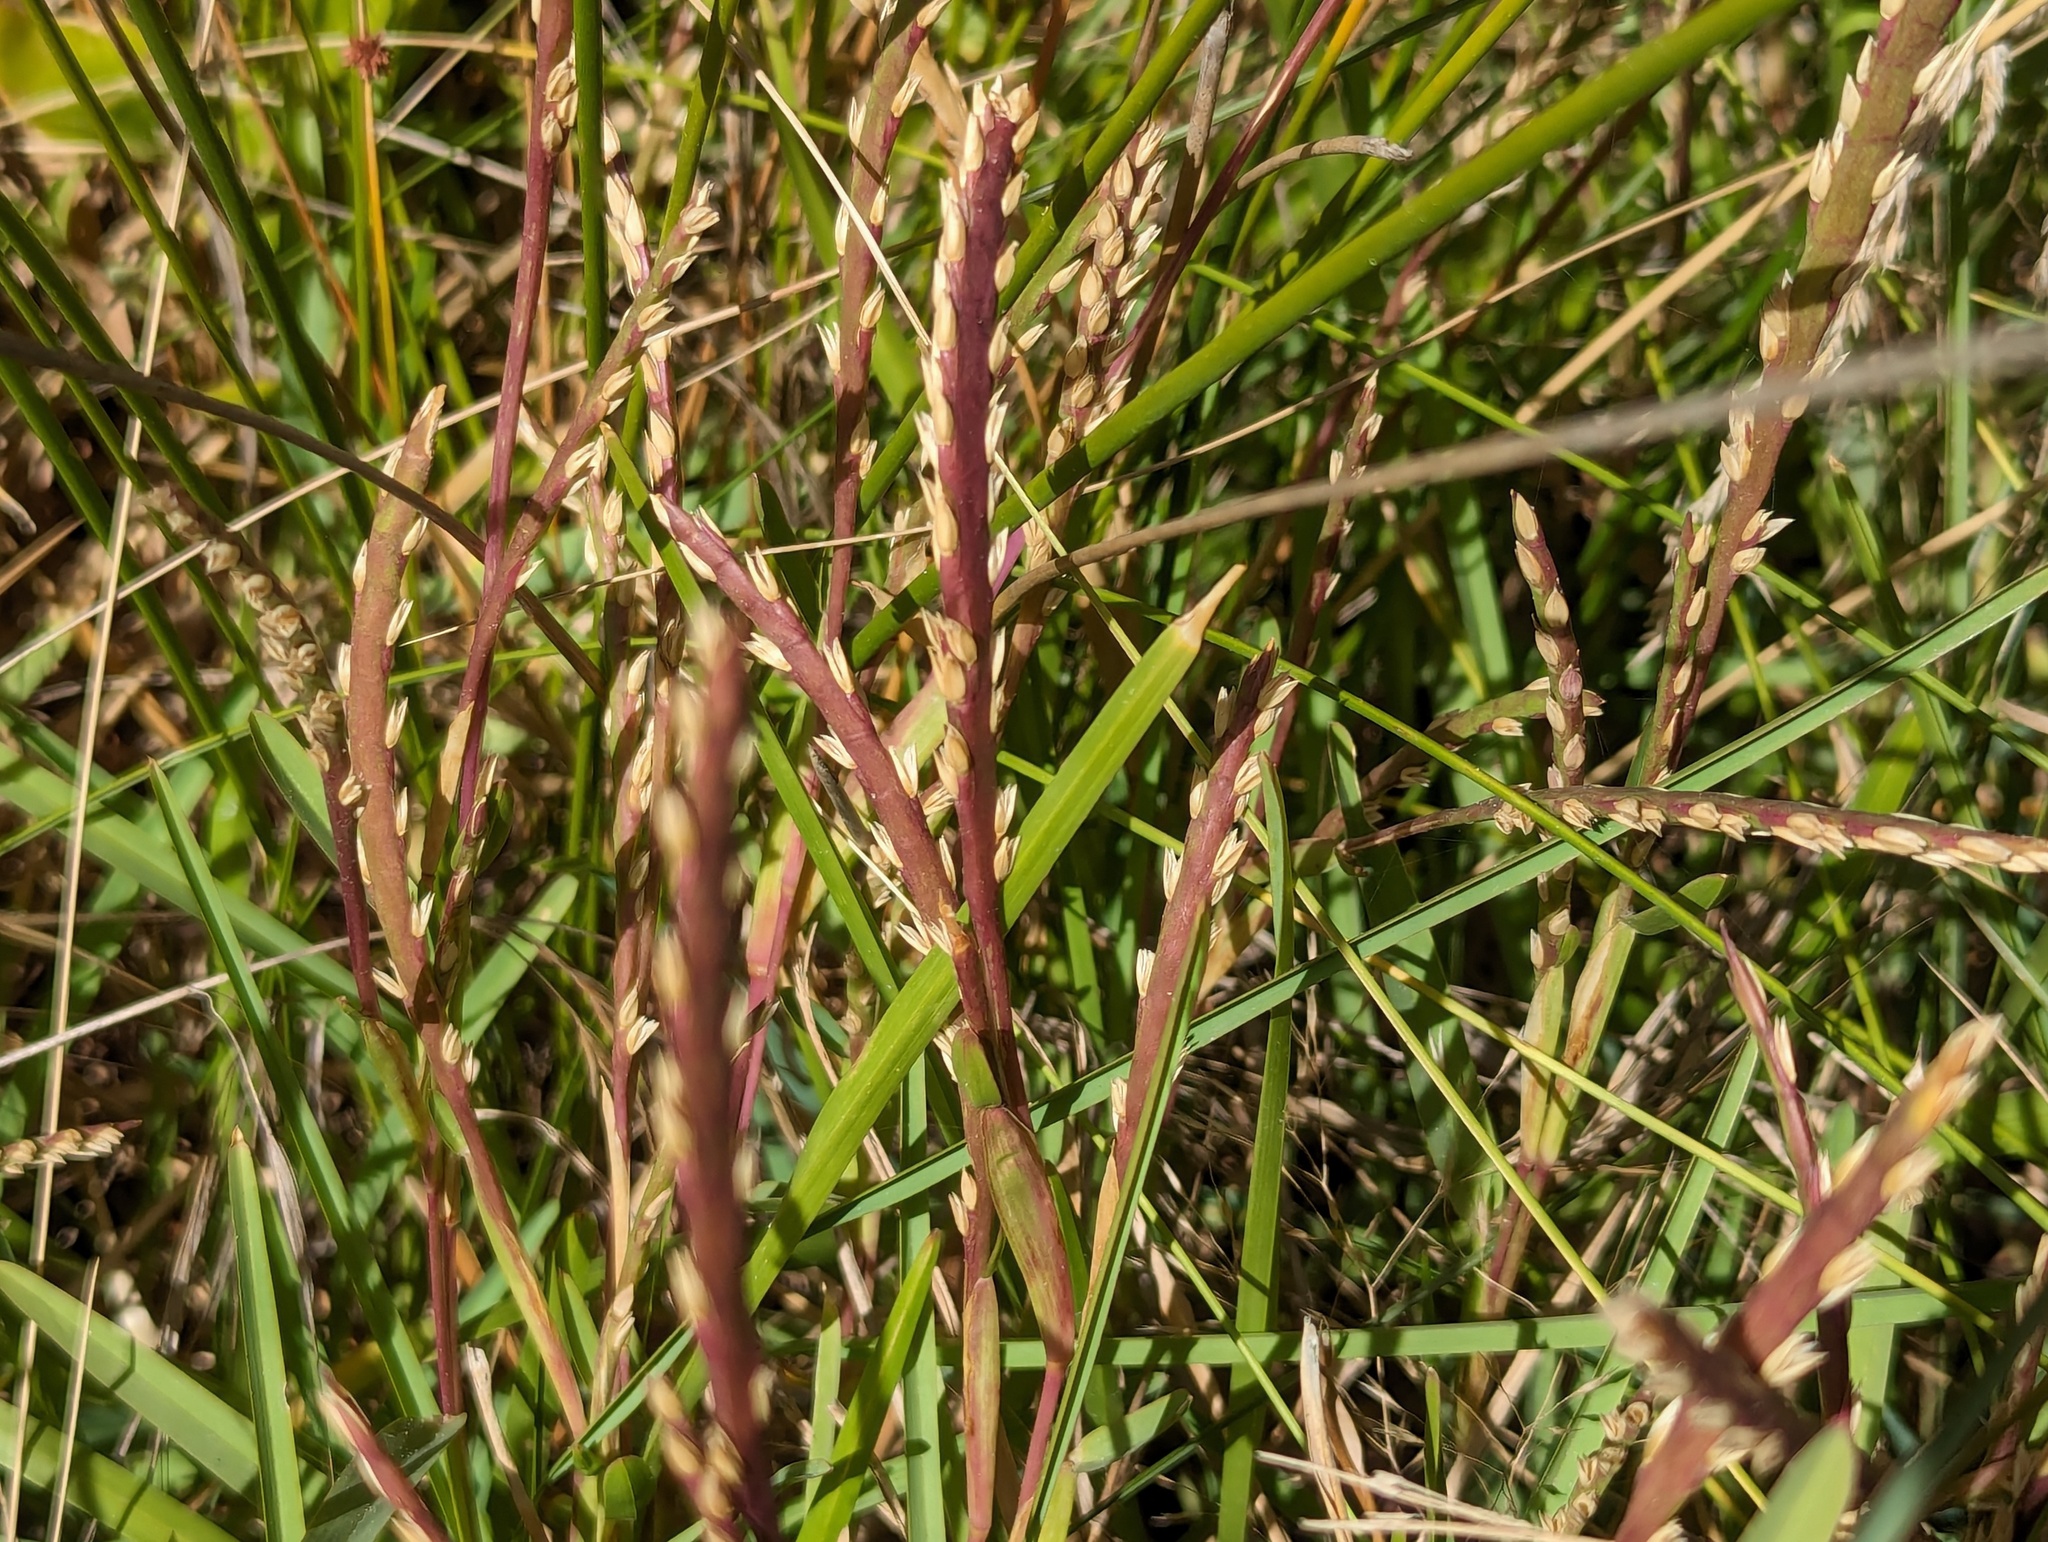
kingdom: Plantae
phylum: Tracheophyta
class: Liliopsida
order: Poales
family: Poaceae
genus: Stenotaphrum
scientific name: Stenotaphrum secundatum
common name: St. augustine grass
